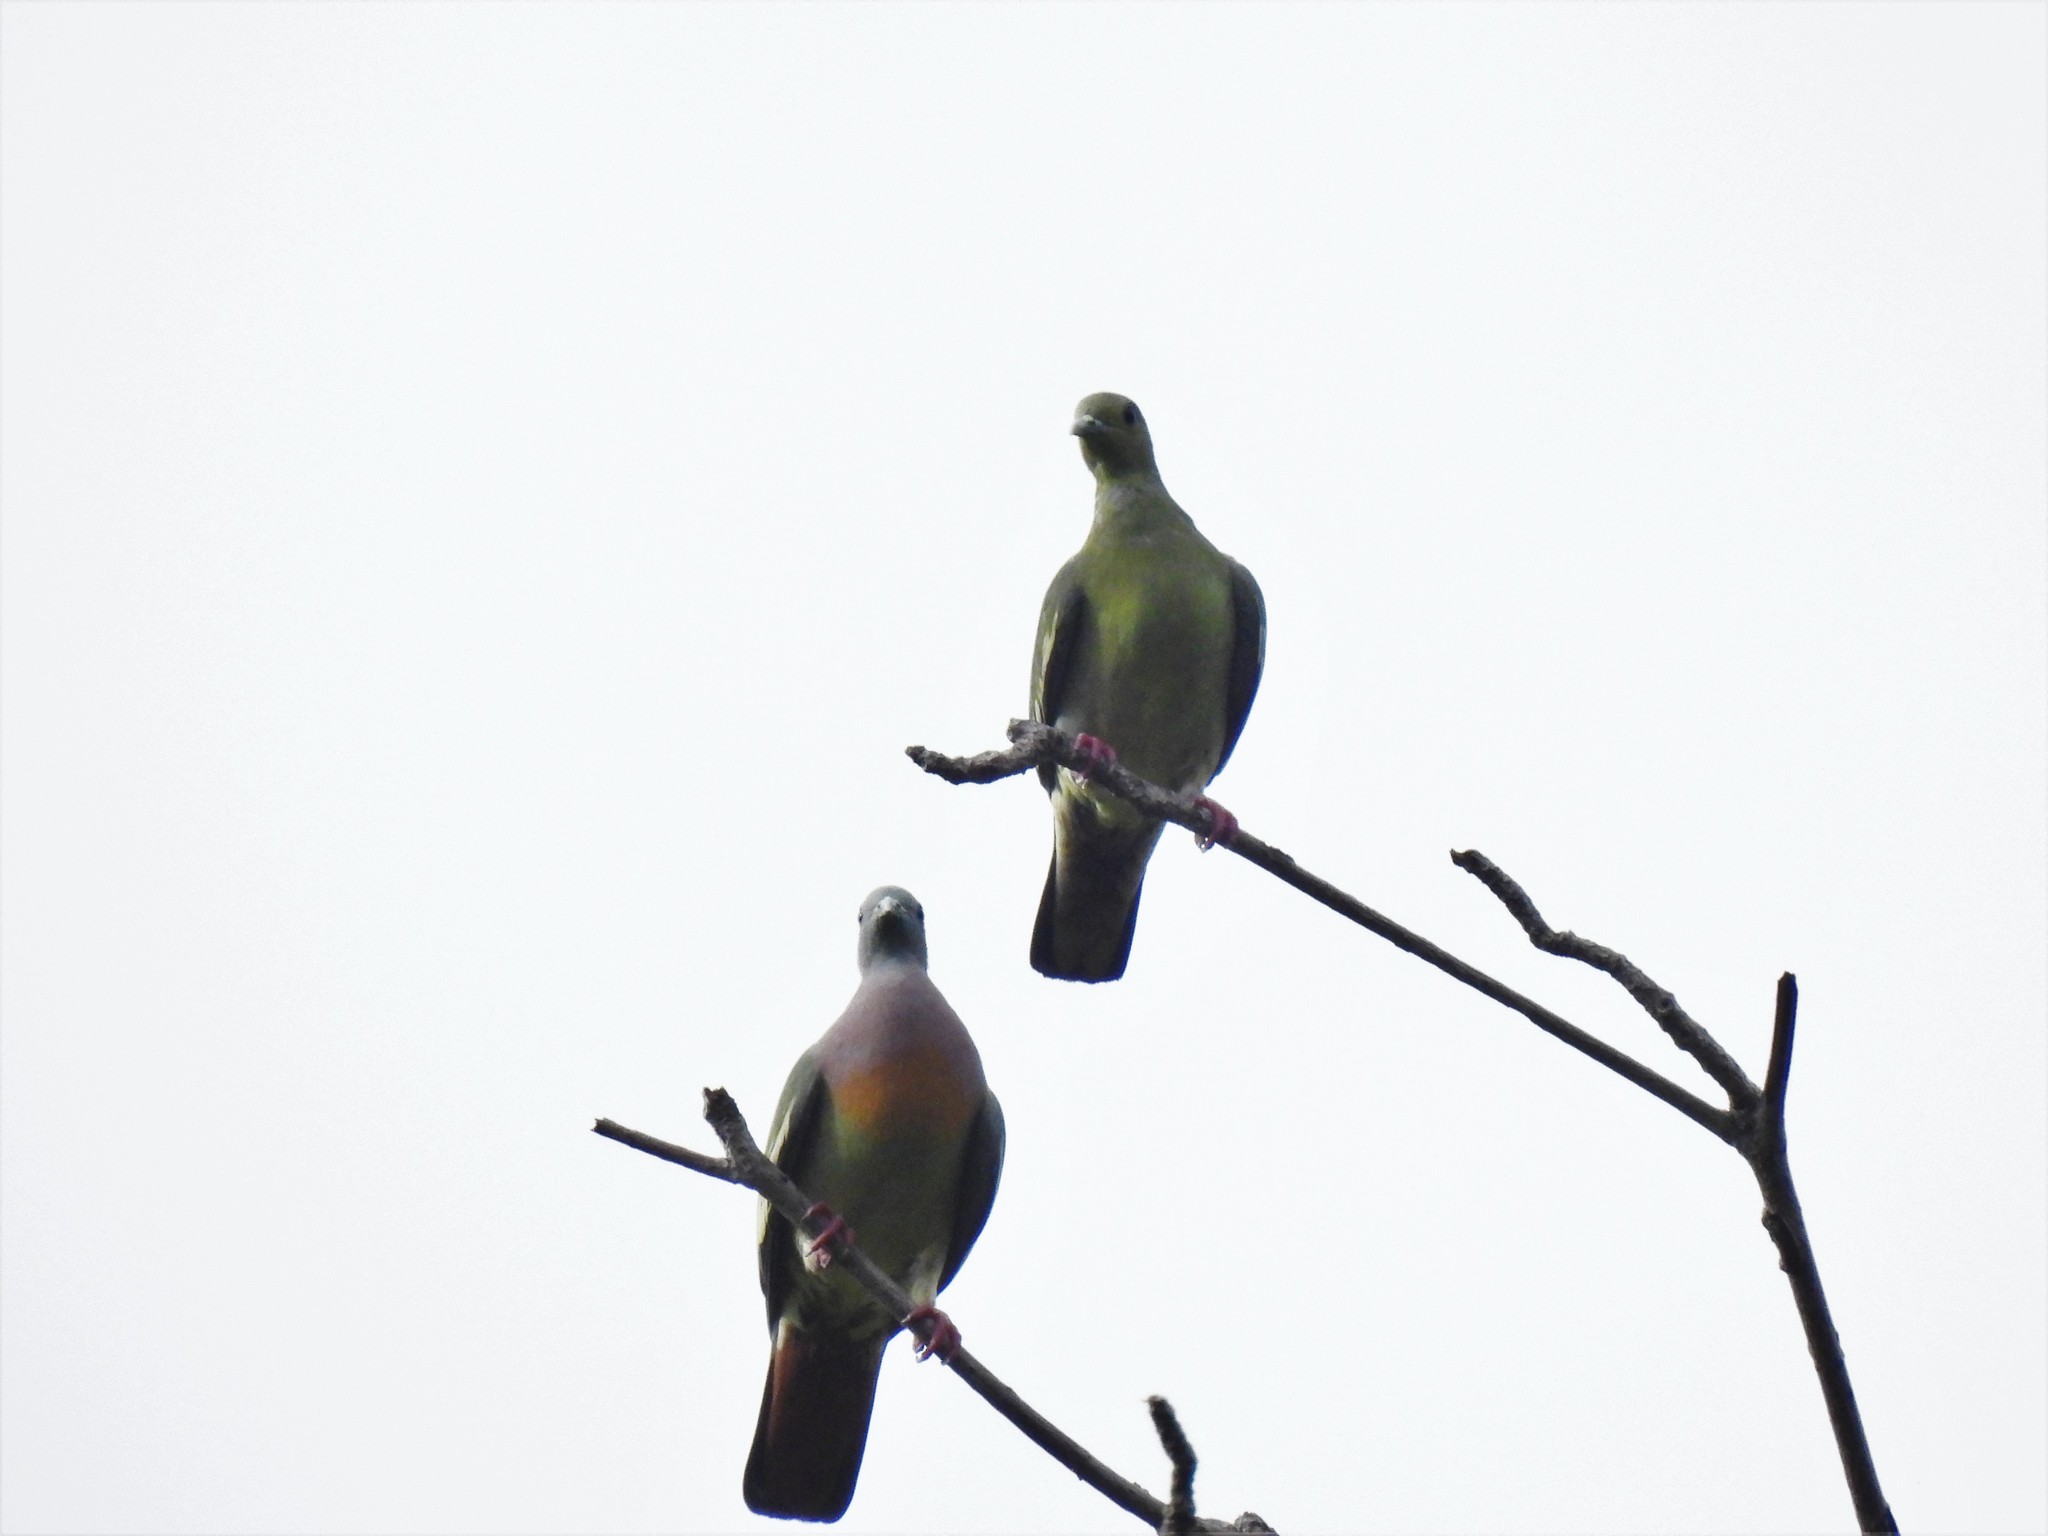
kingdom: Animalia
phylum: Chordata
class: Aves
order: Columbiformes
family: Columbidae
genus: Treron
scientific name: Treron vernans
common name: Pink-necked green pigeon
